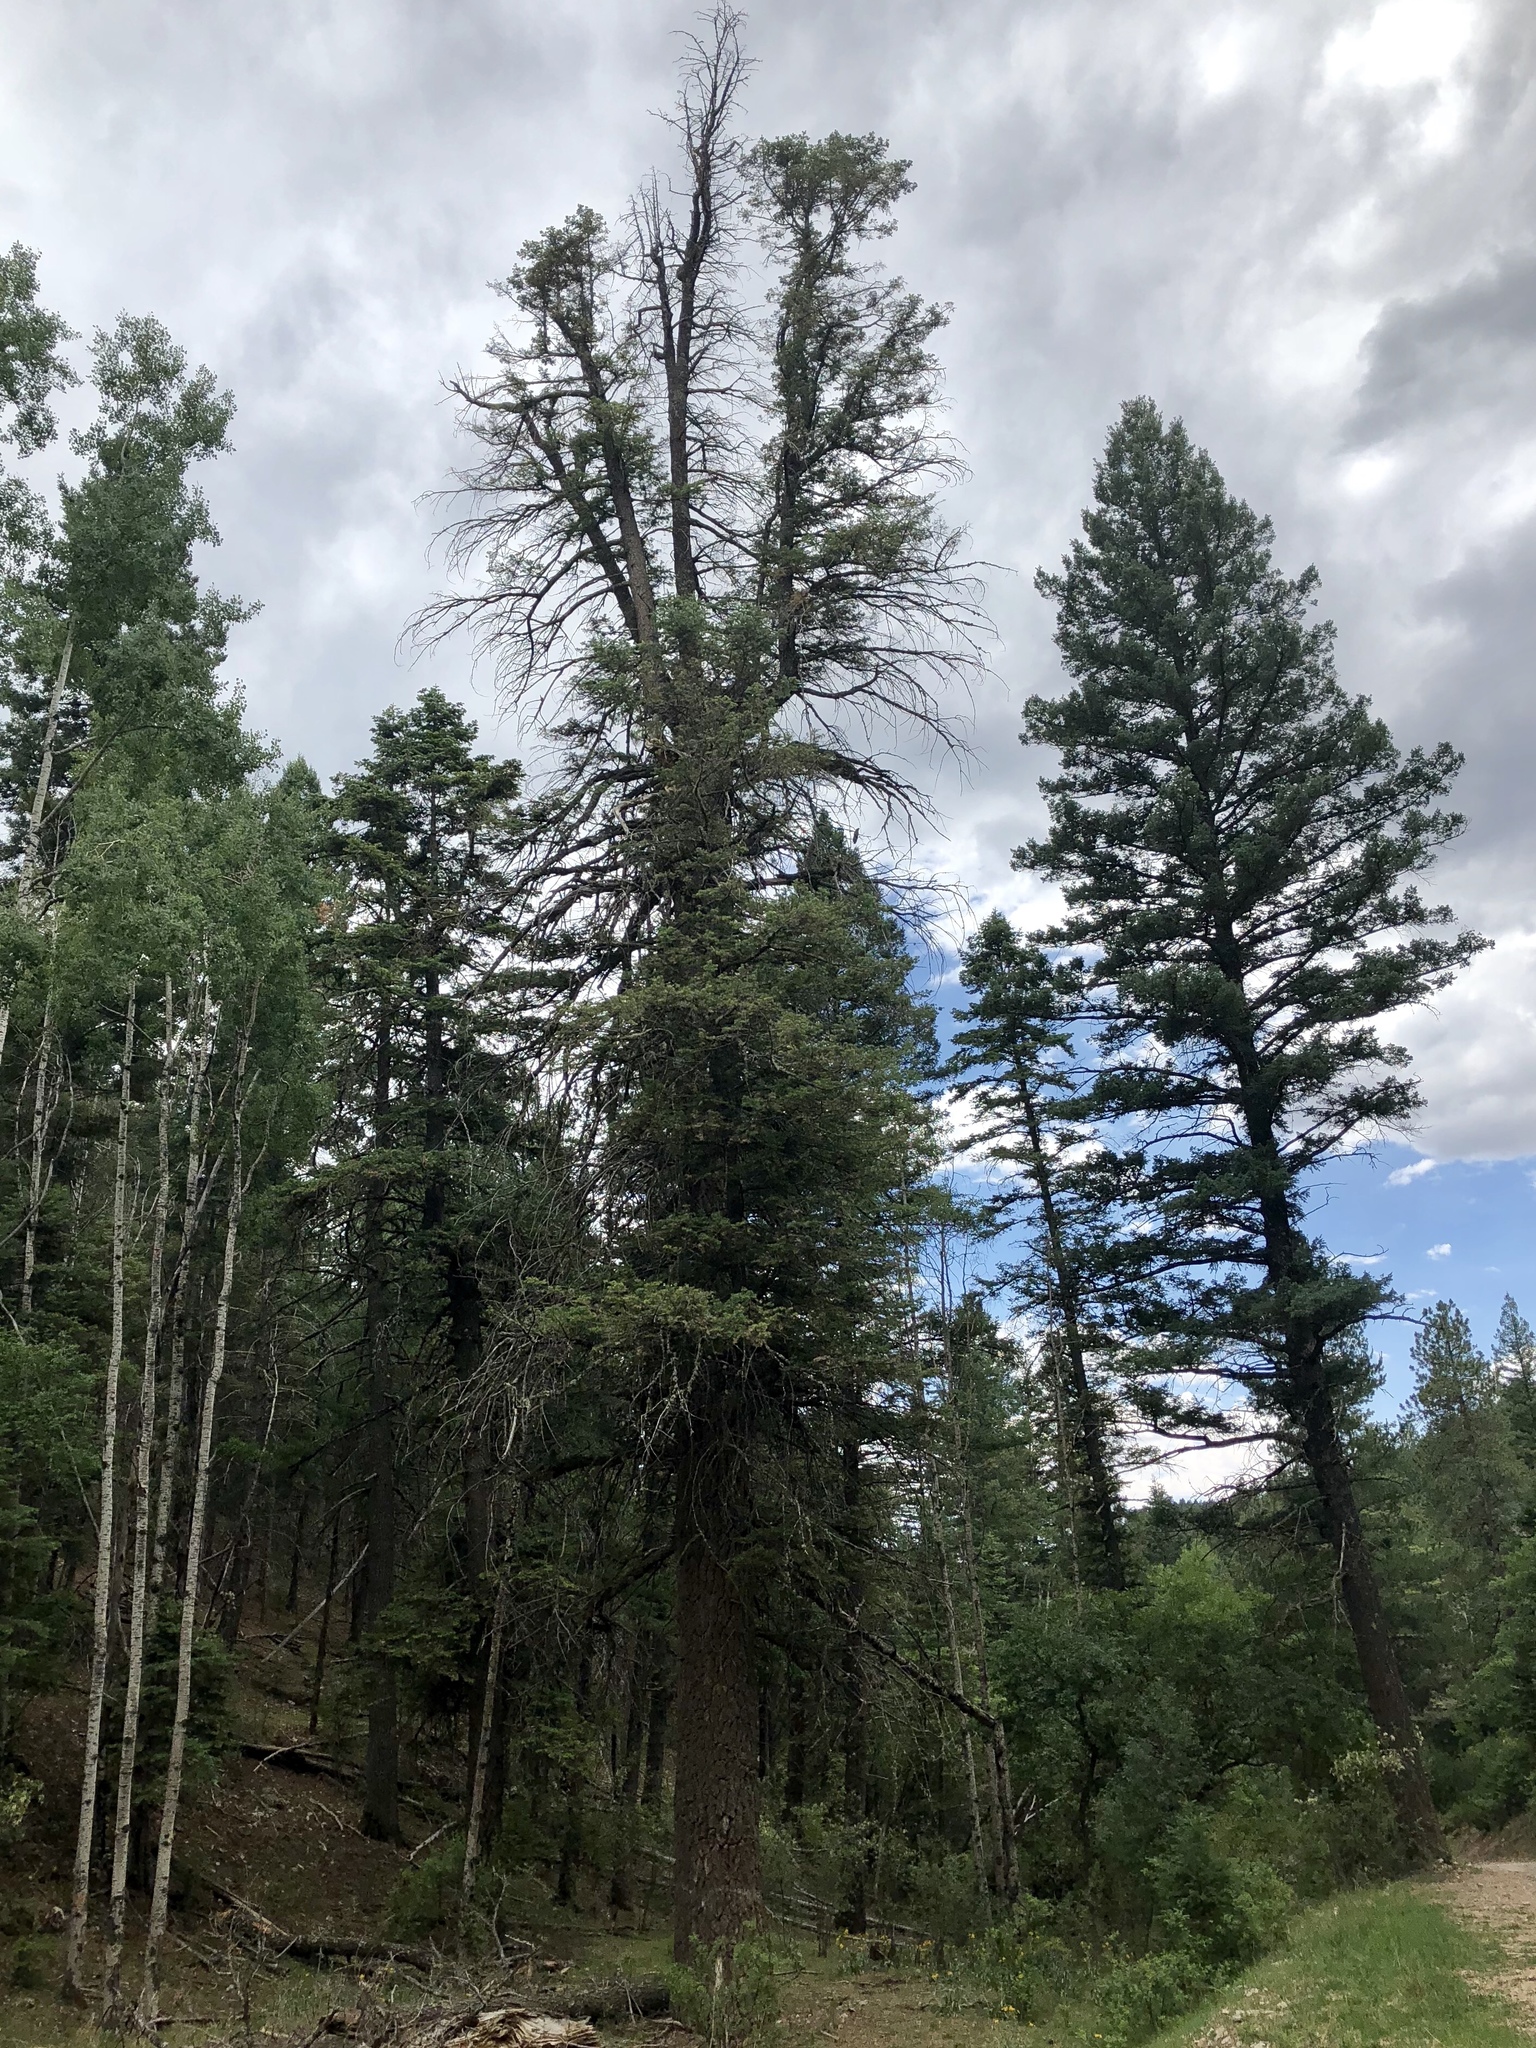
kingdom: Plantae
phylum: Tracheophyta
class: Pinopsida
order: Pinales
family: Pinaceae
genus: Pseudotsuga
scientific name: Pseudotsuga menziesii
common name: Douglas fir
